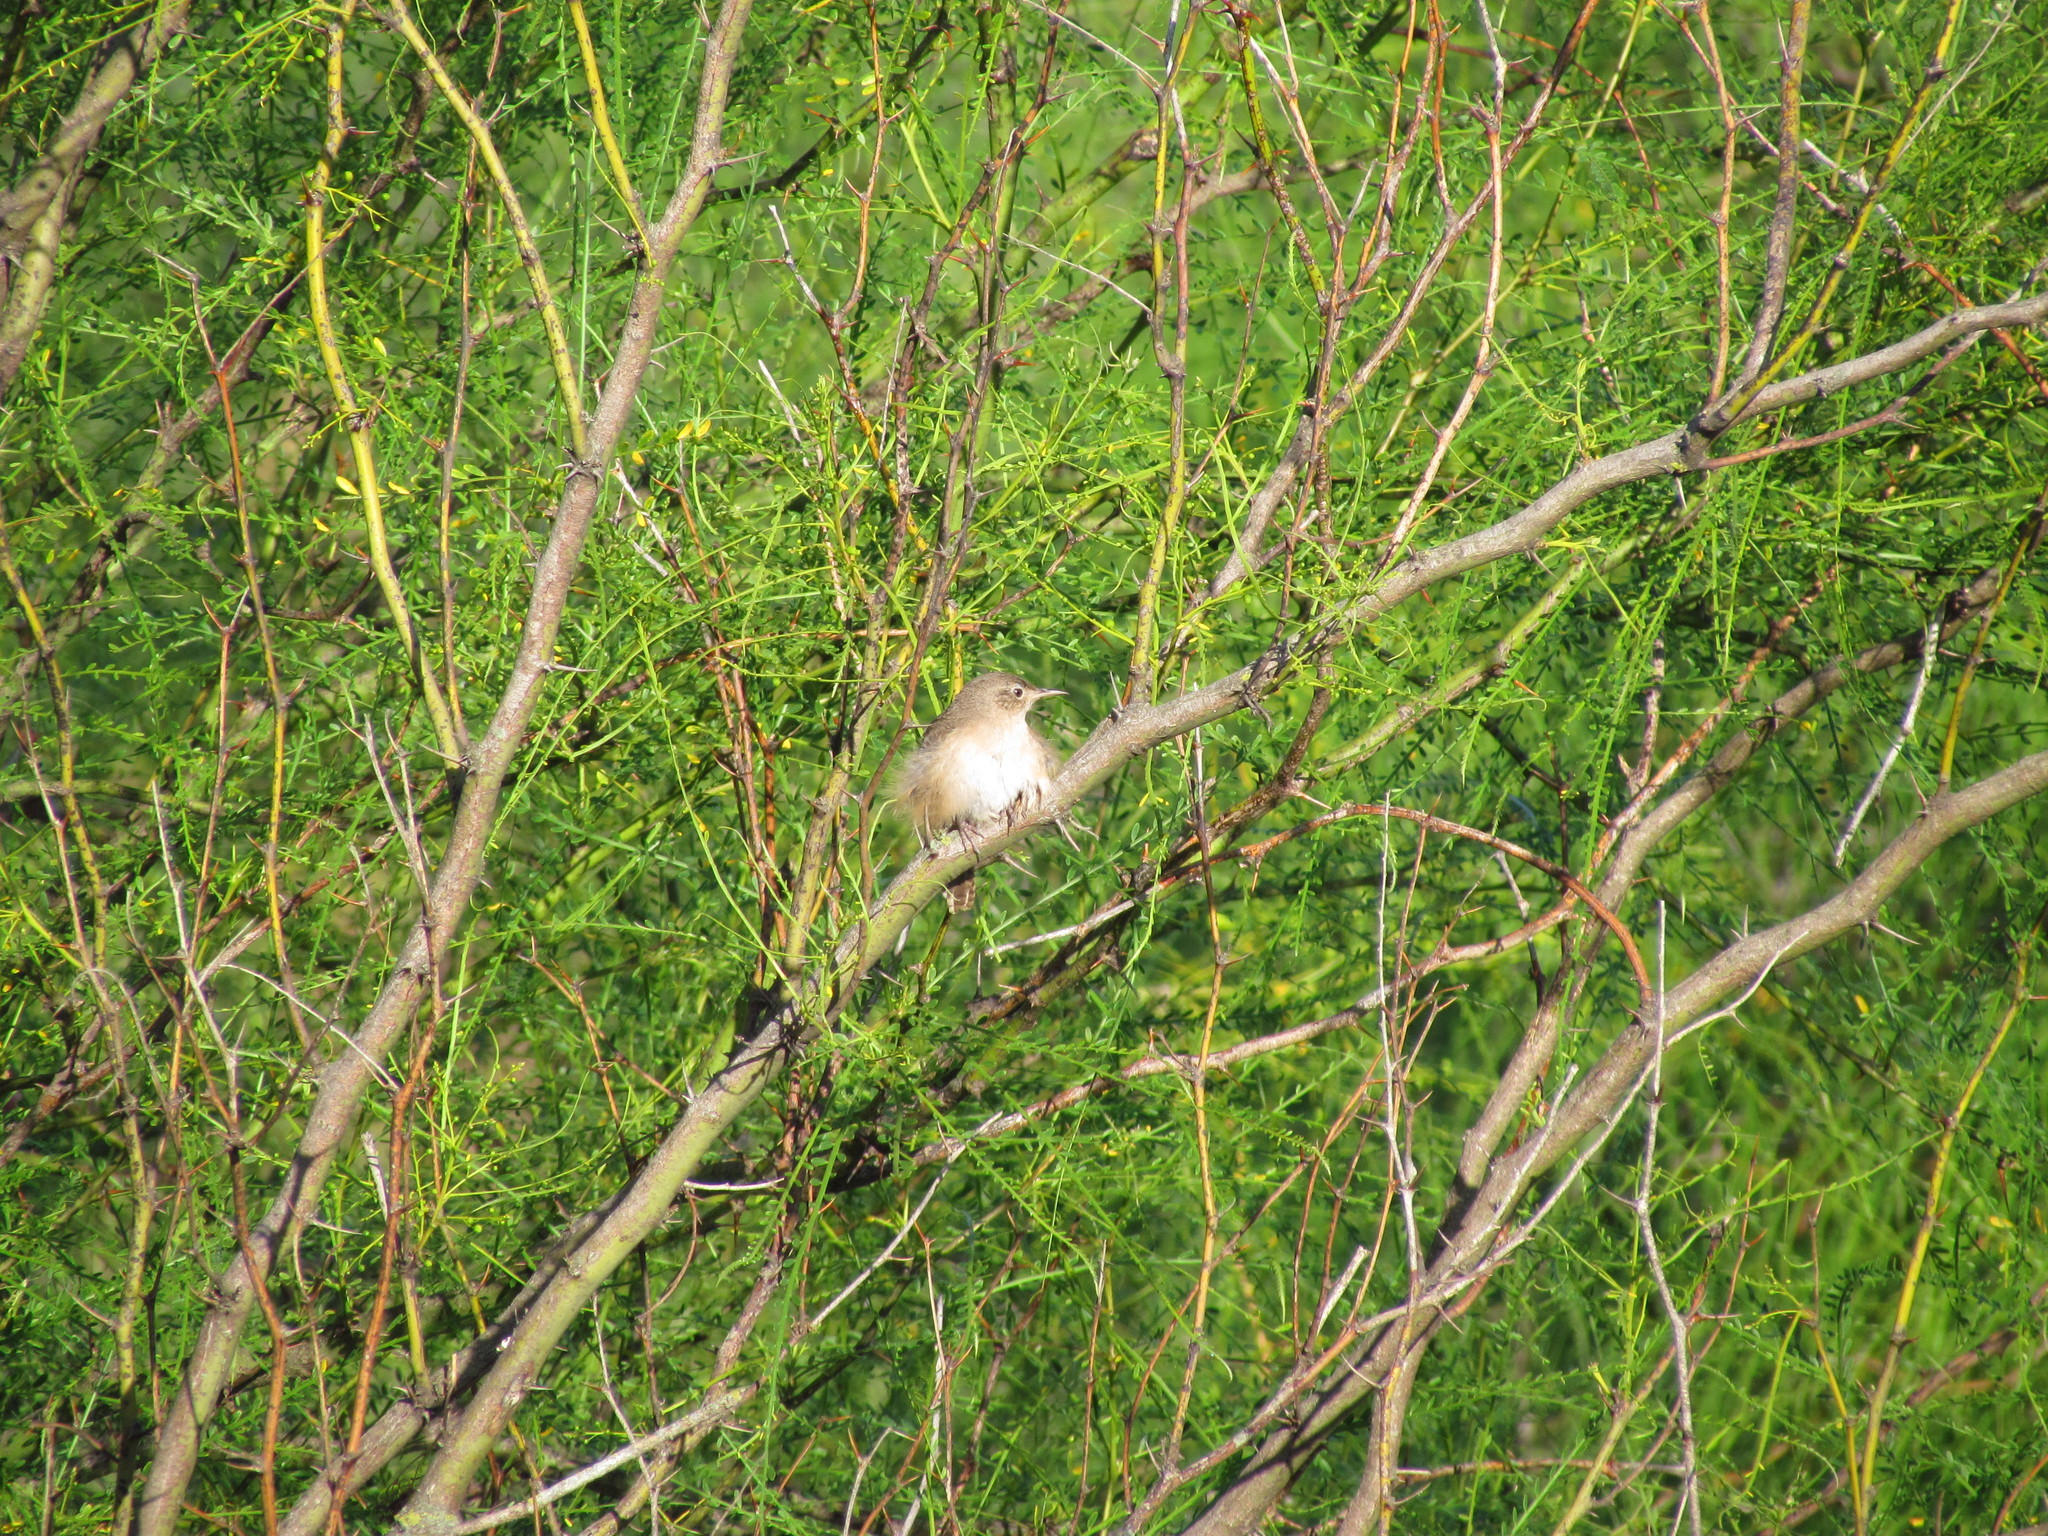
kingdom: Animalia
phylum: Chordata
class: Aves
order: Passeriformes
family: Troglodytidae
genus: Troglodytes
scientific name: Troglodytes aedon
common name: House wren
